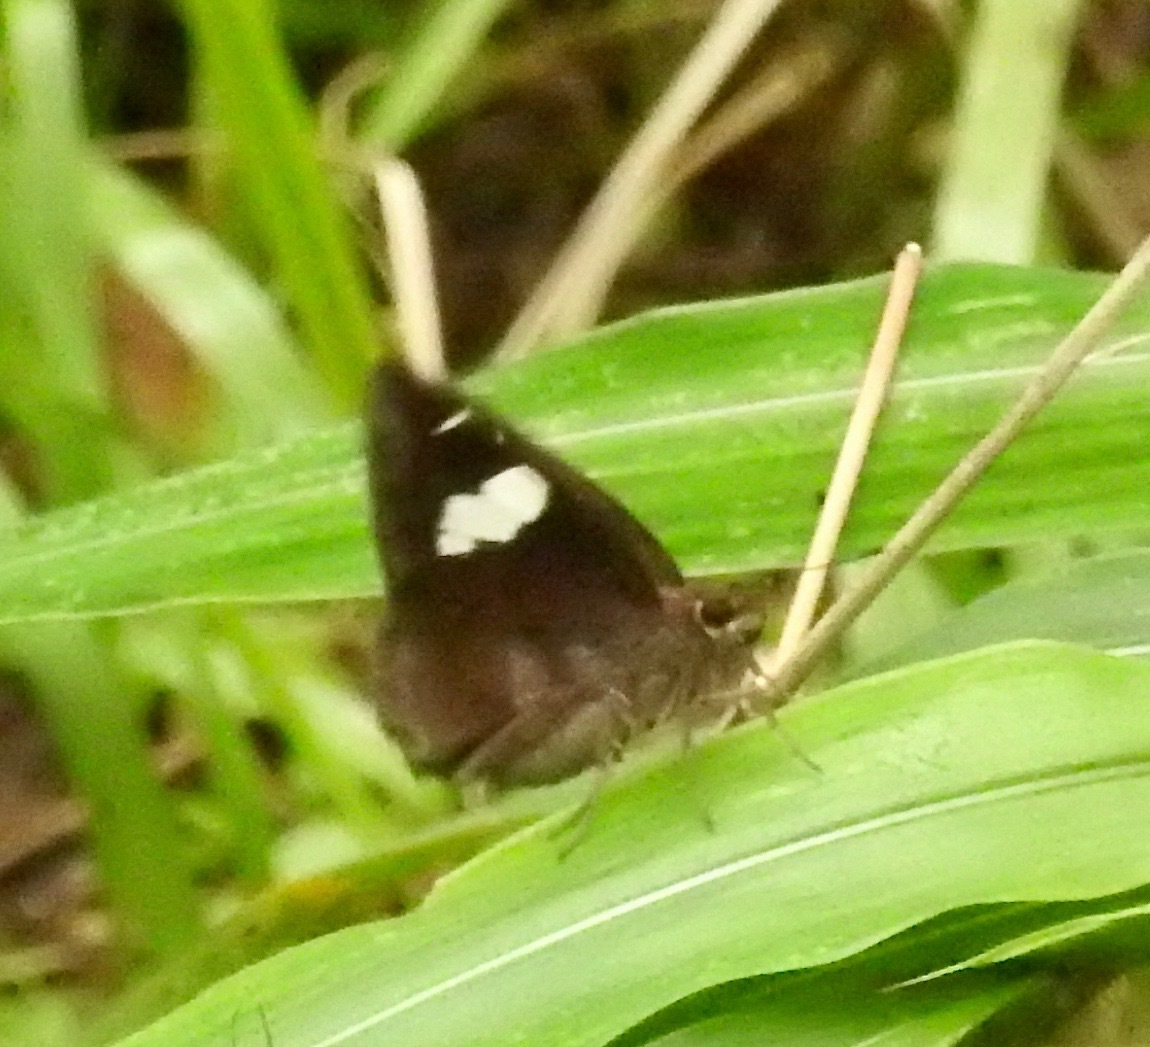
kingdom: Animalia
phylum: Arthropoda
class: Insecta
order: Lepidoptera
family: Hesperiidae
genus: Notocrypta
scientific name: Notocrypta curvifascia
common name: Restricted demon
